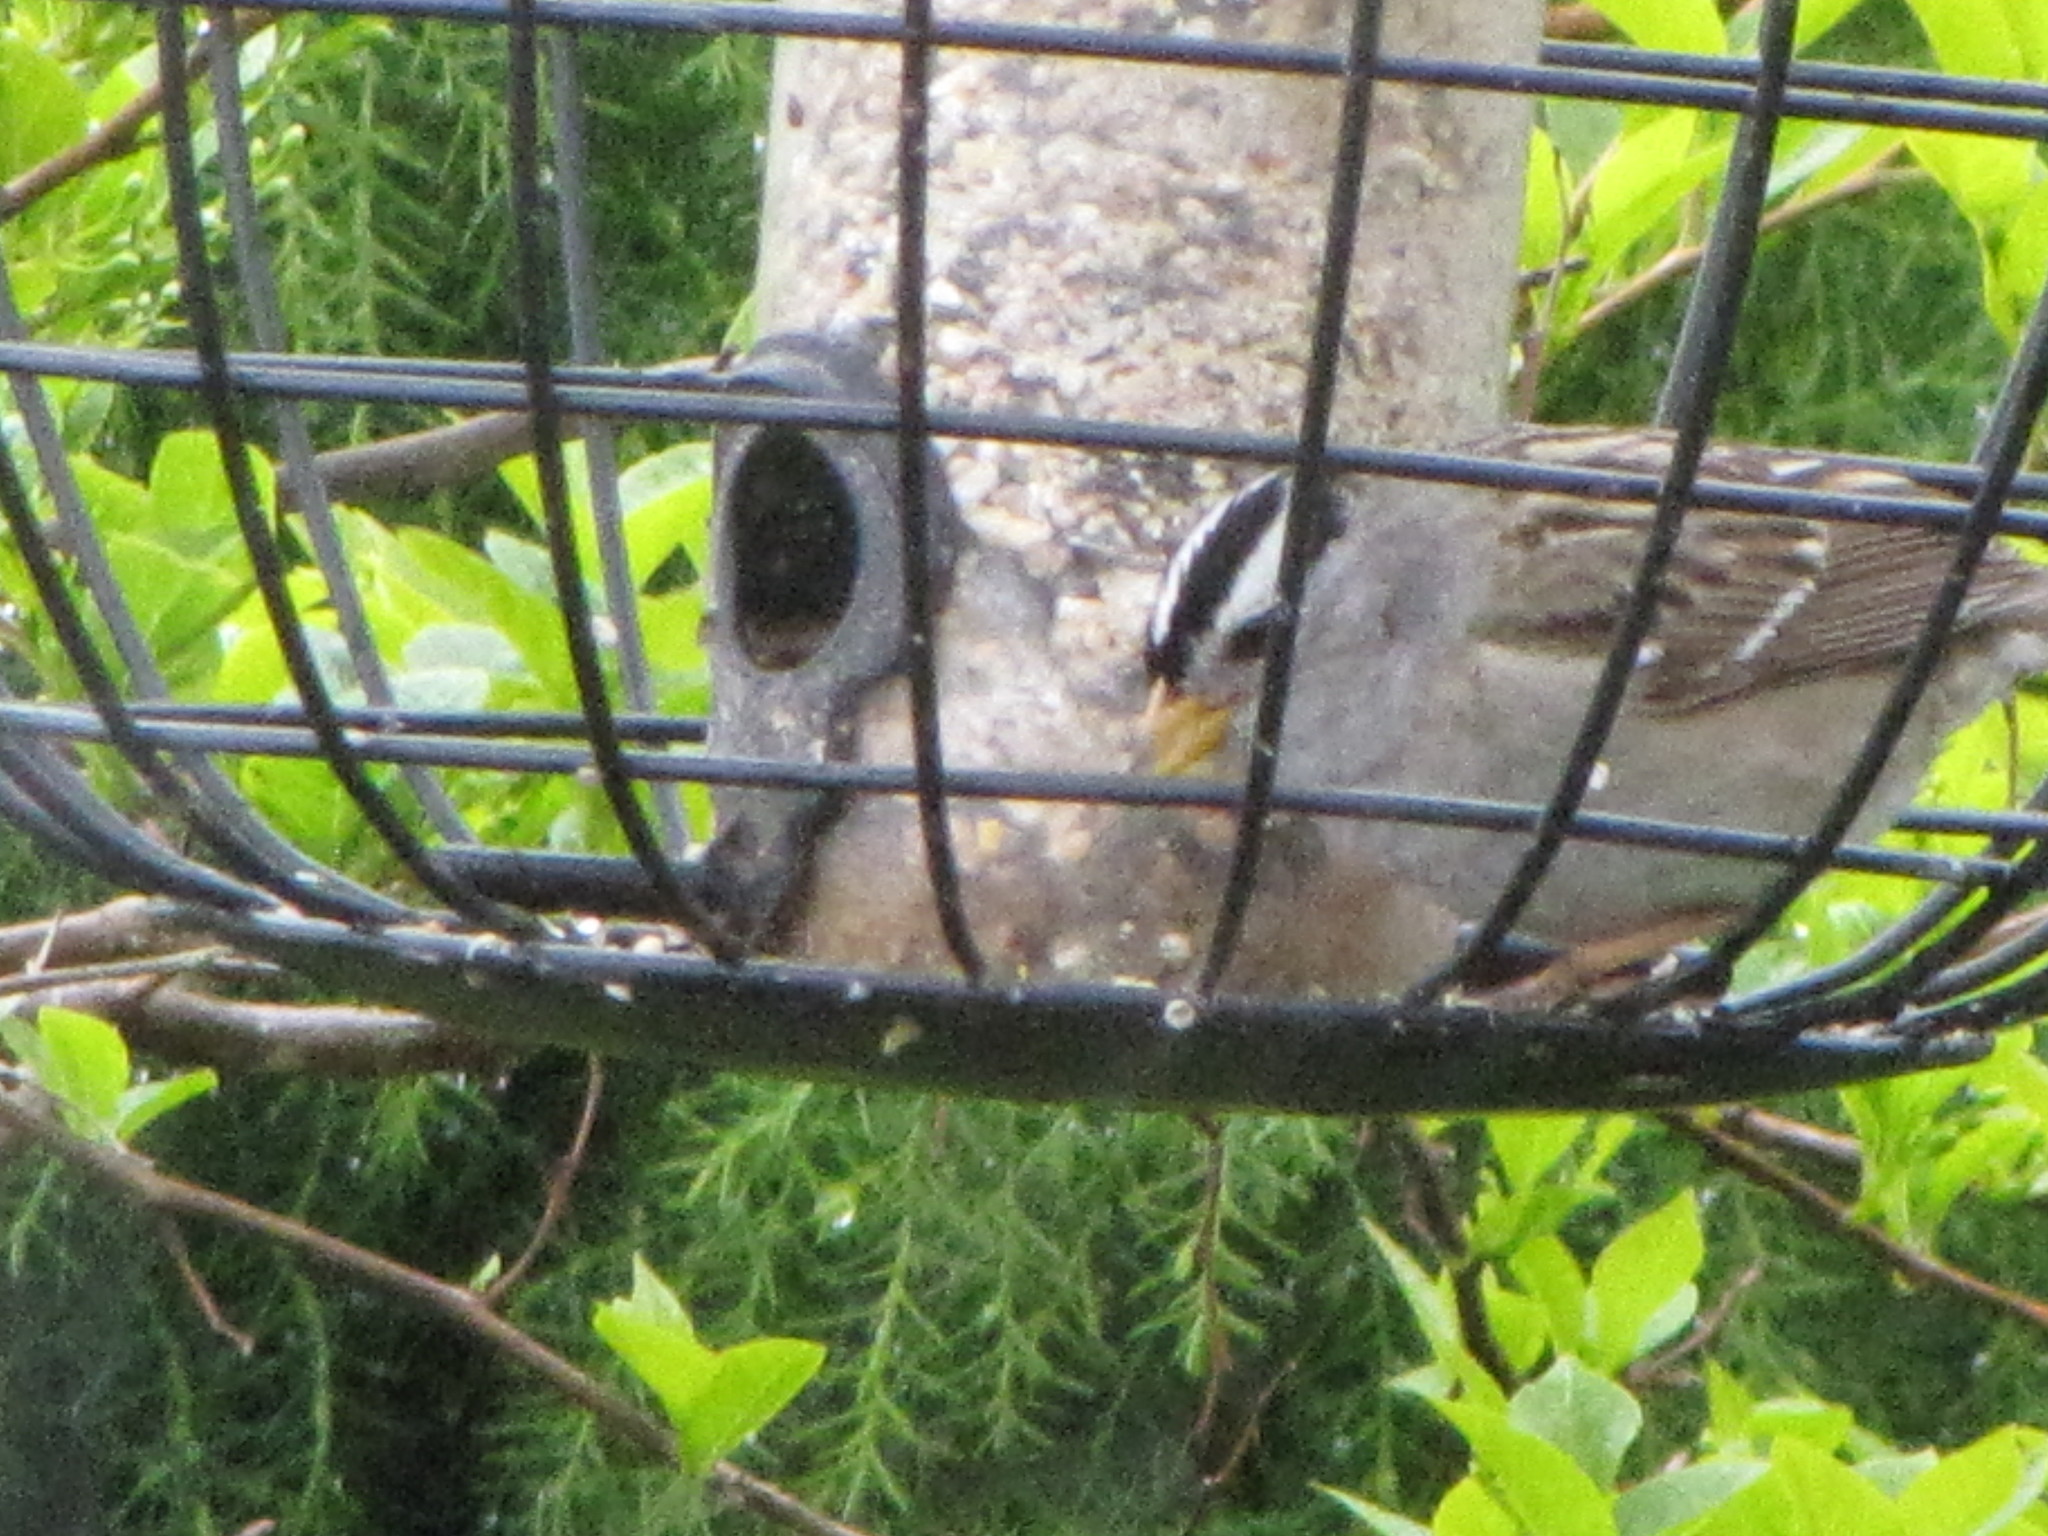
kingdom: Animalia
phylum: Chordata
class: Aves
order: Passeriformes
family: Passerellidae
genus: Zonotrichia
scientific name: Zonotrichia leucophrys
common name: White-crowned sparrow
